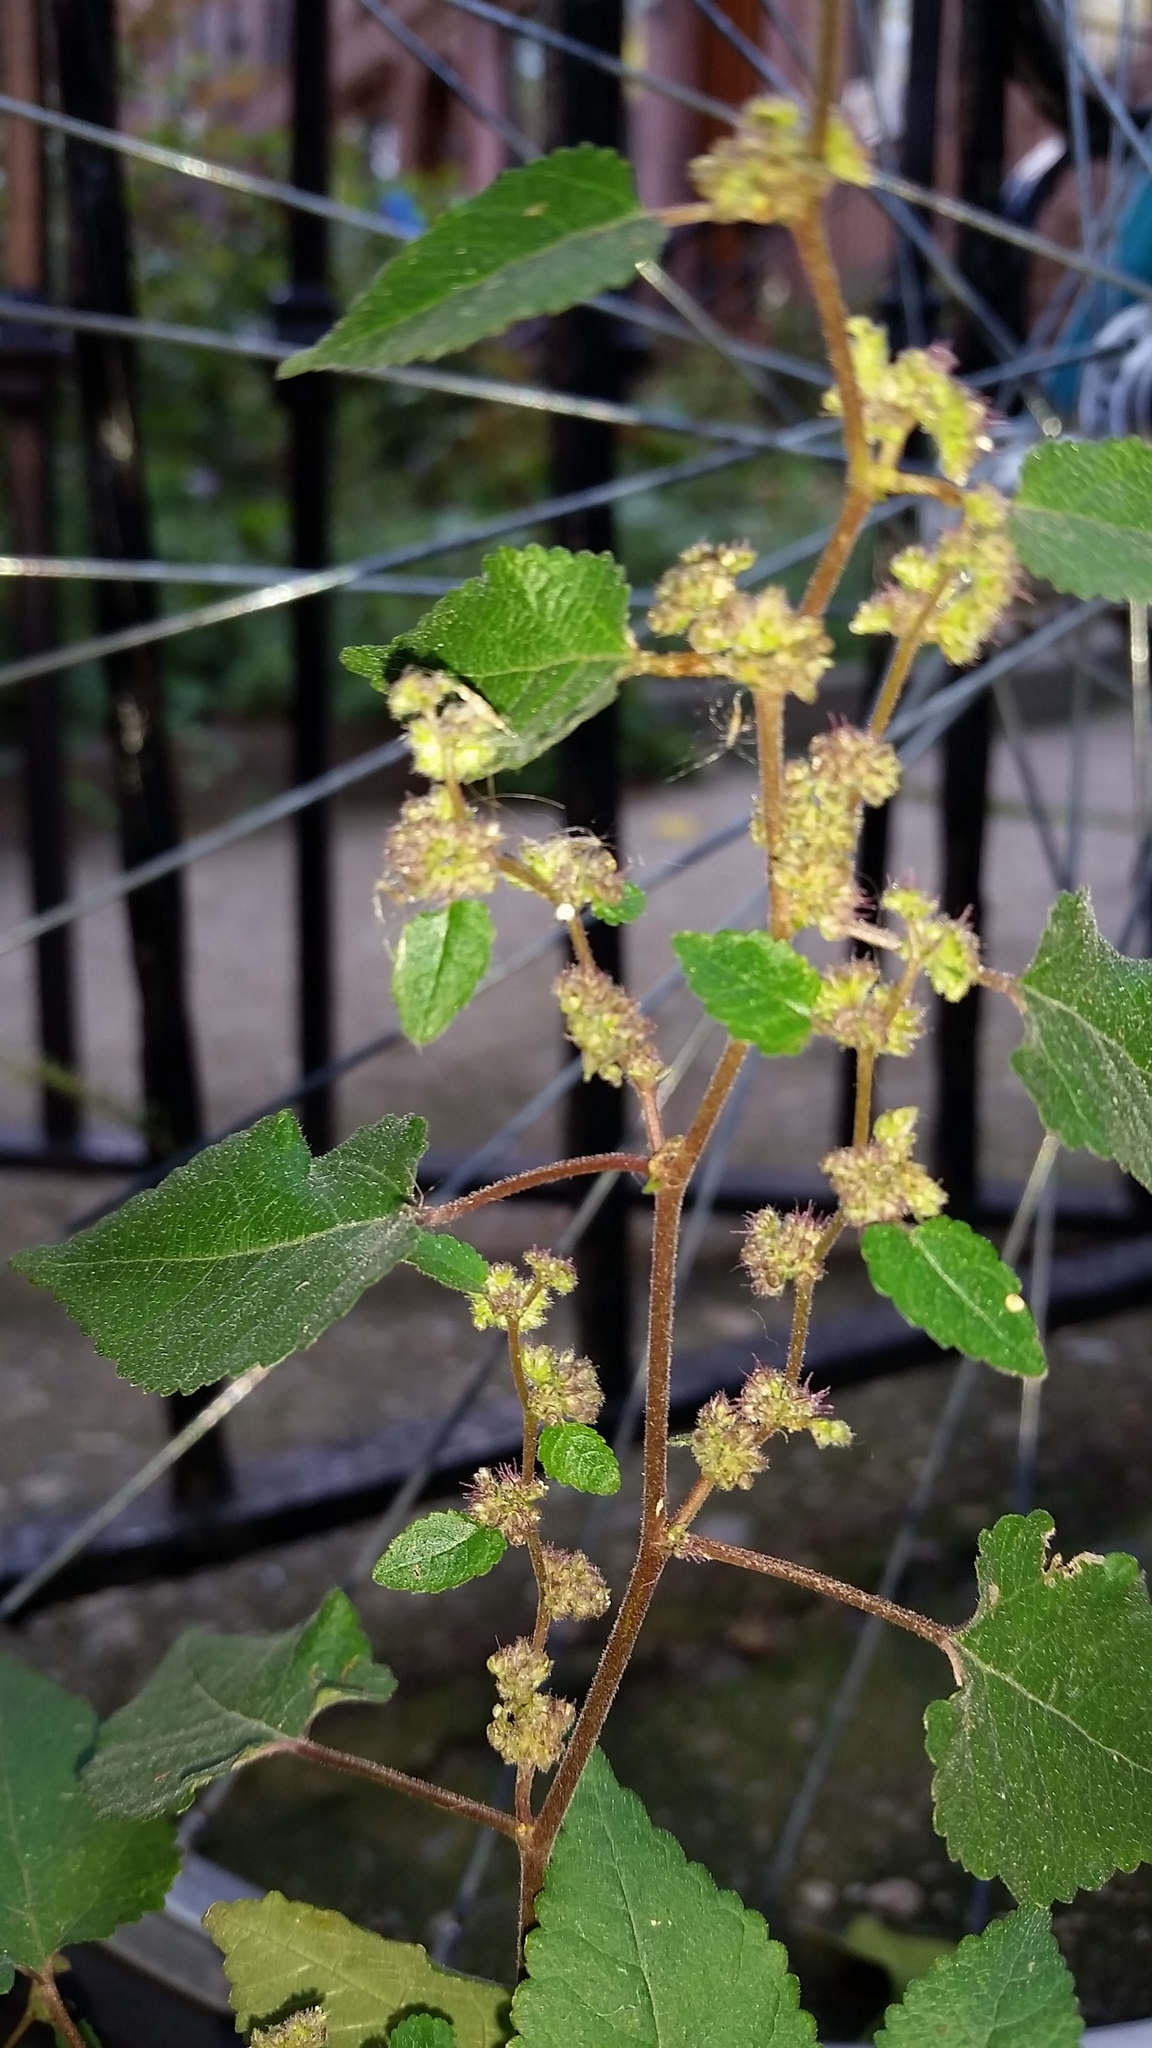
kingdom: Plantae
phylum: Tracheophyta
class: Magnoliopsida
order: Rosales
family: Moraceae
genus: Fatoua
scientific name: Fatoua villosa
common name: Hairy crabweed
